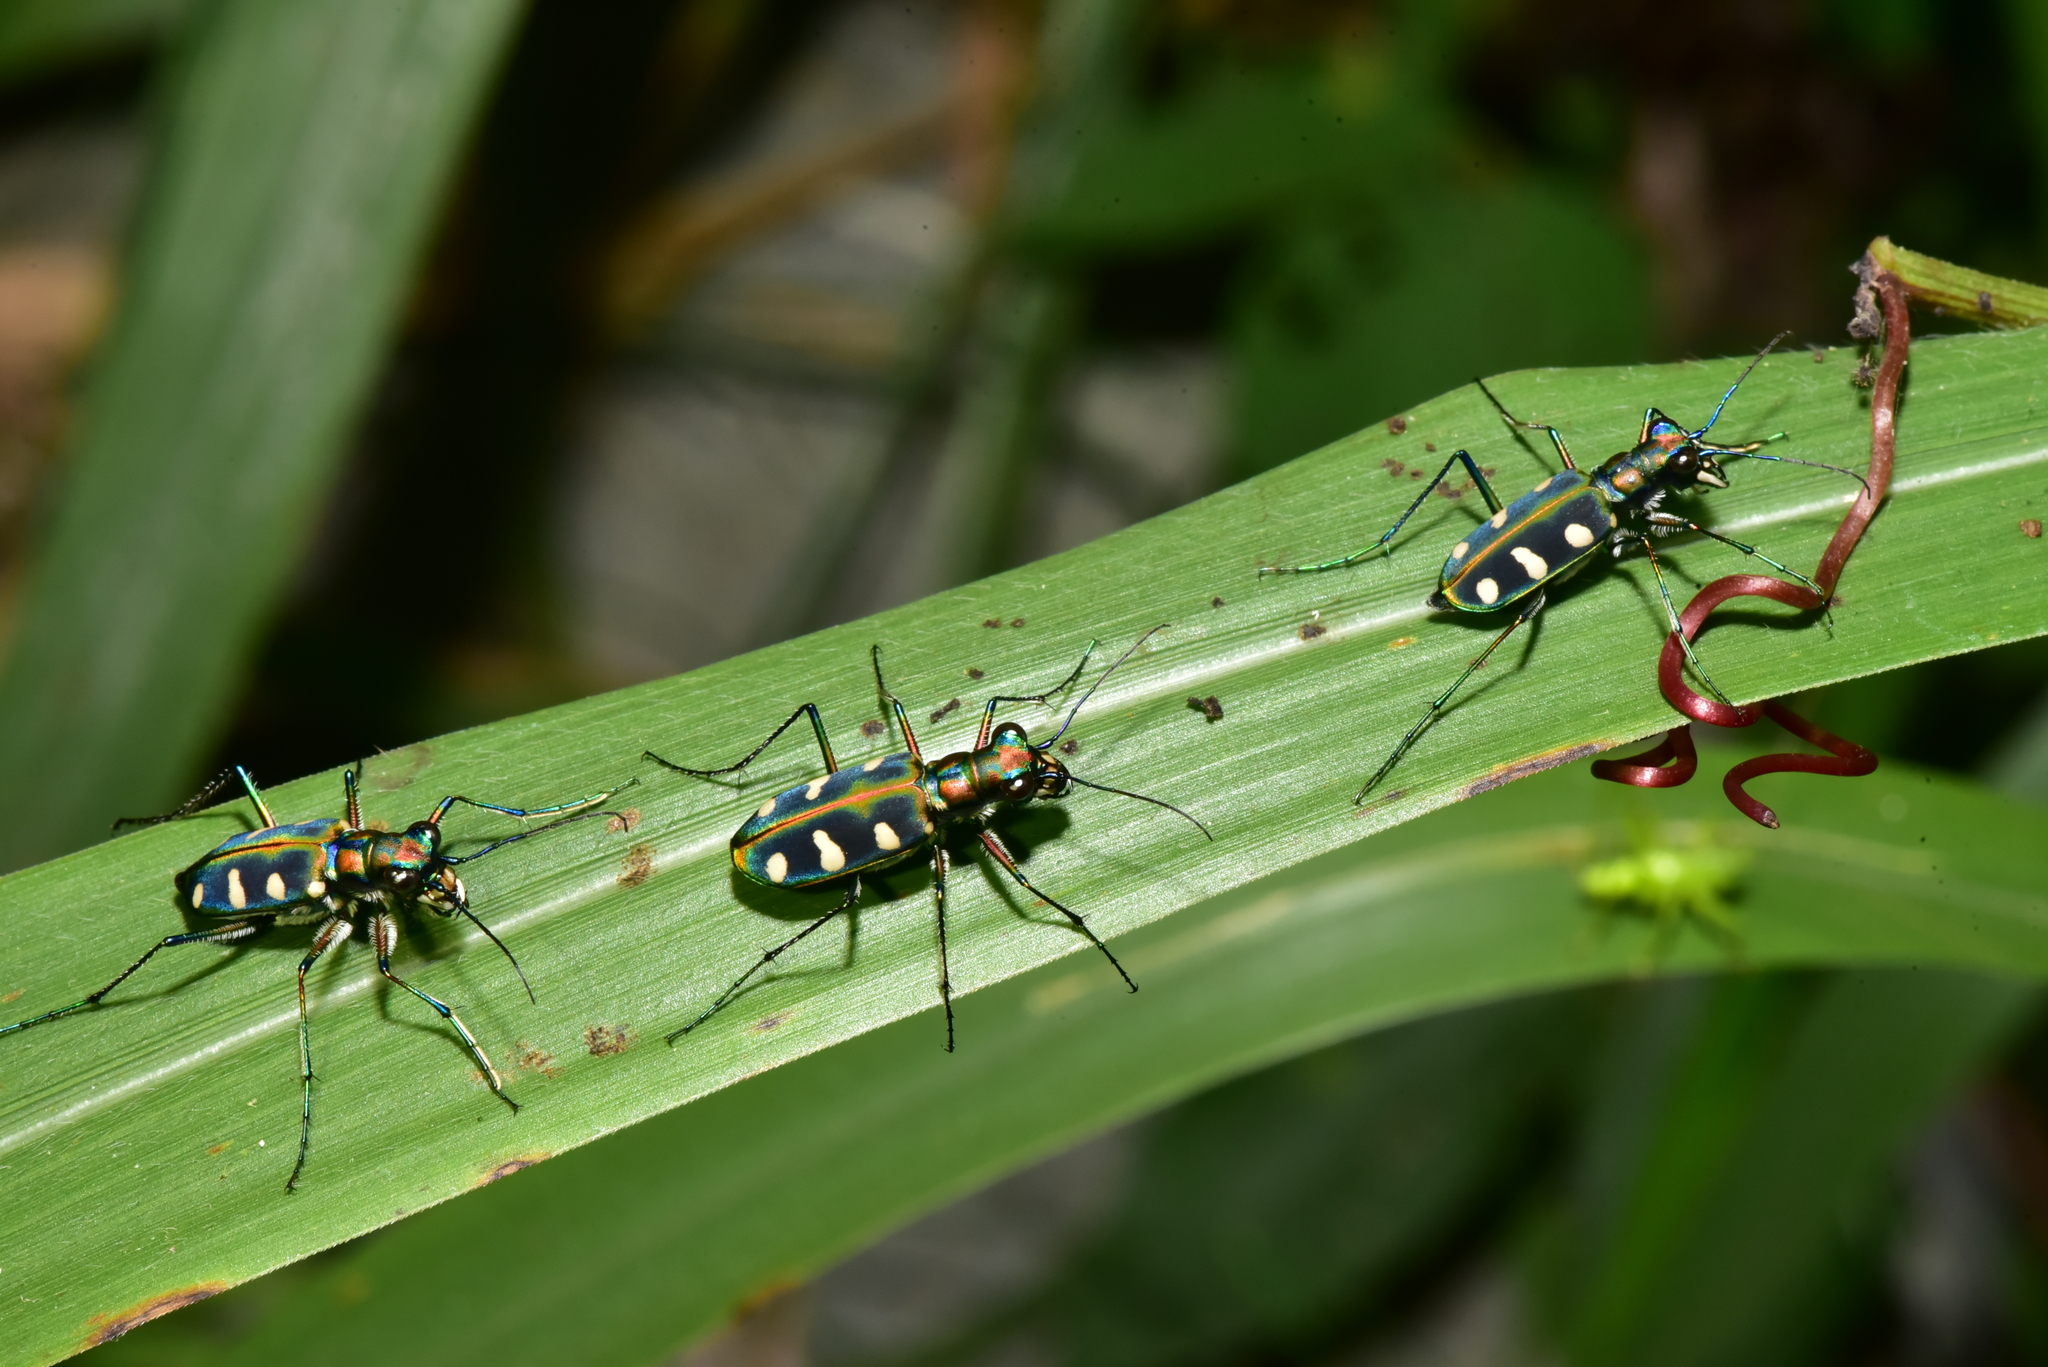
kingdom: Animalia
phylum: Arthropoda
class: Insecta
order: Coleoptera
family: Carabidae
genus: Cicindela
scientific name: Cicindela batesi
